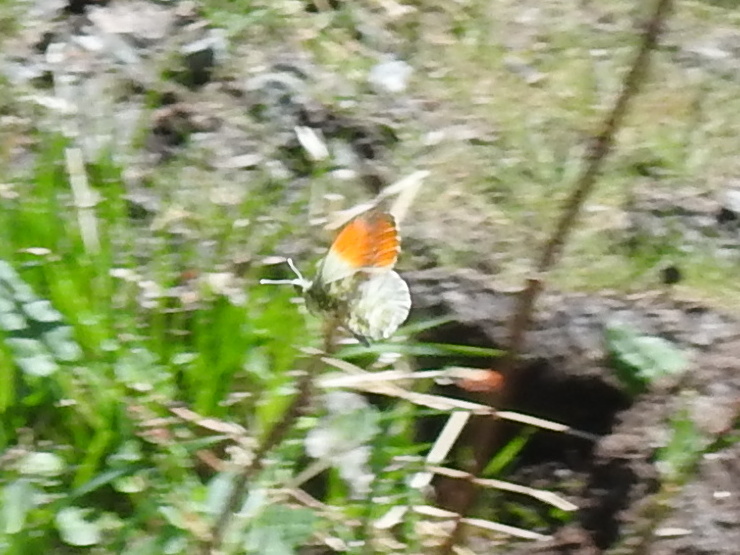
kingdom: Animalia
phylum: Arthropoda
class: Insecta
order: Lepidoptera
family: Pieridae
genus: Anthocharis
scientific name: Anthocharis cardamines
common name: Orange-tip
